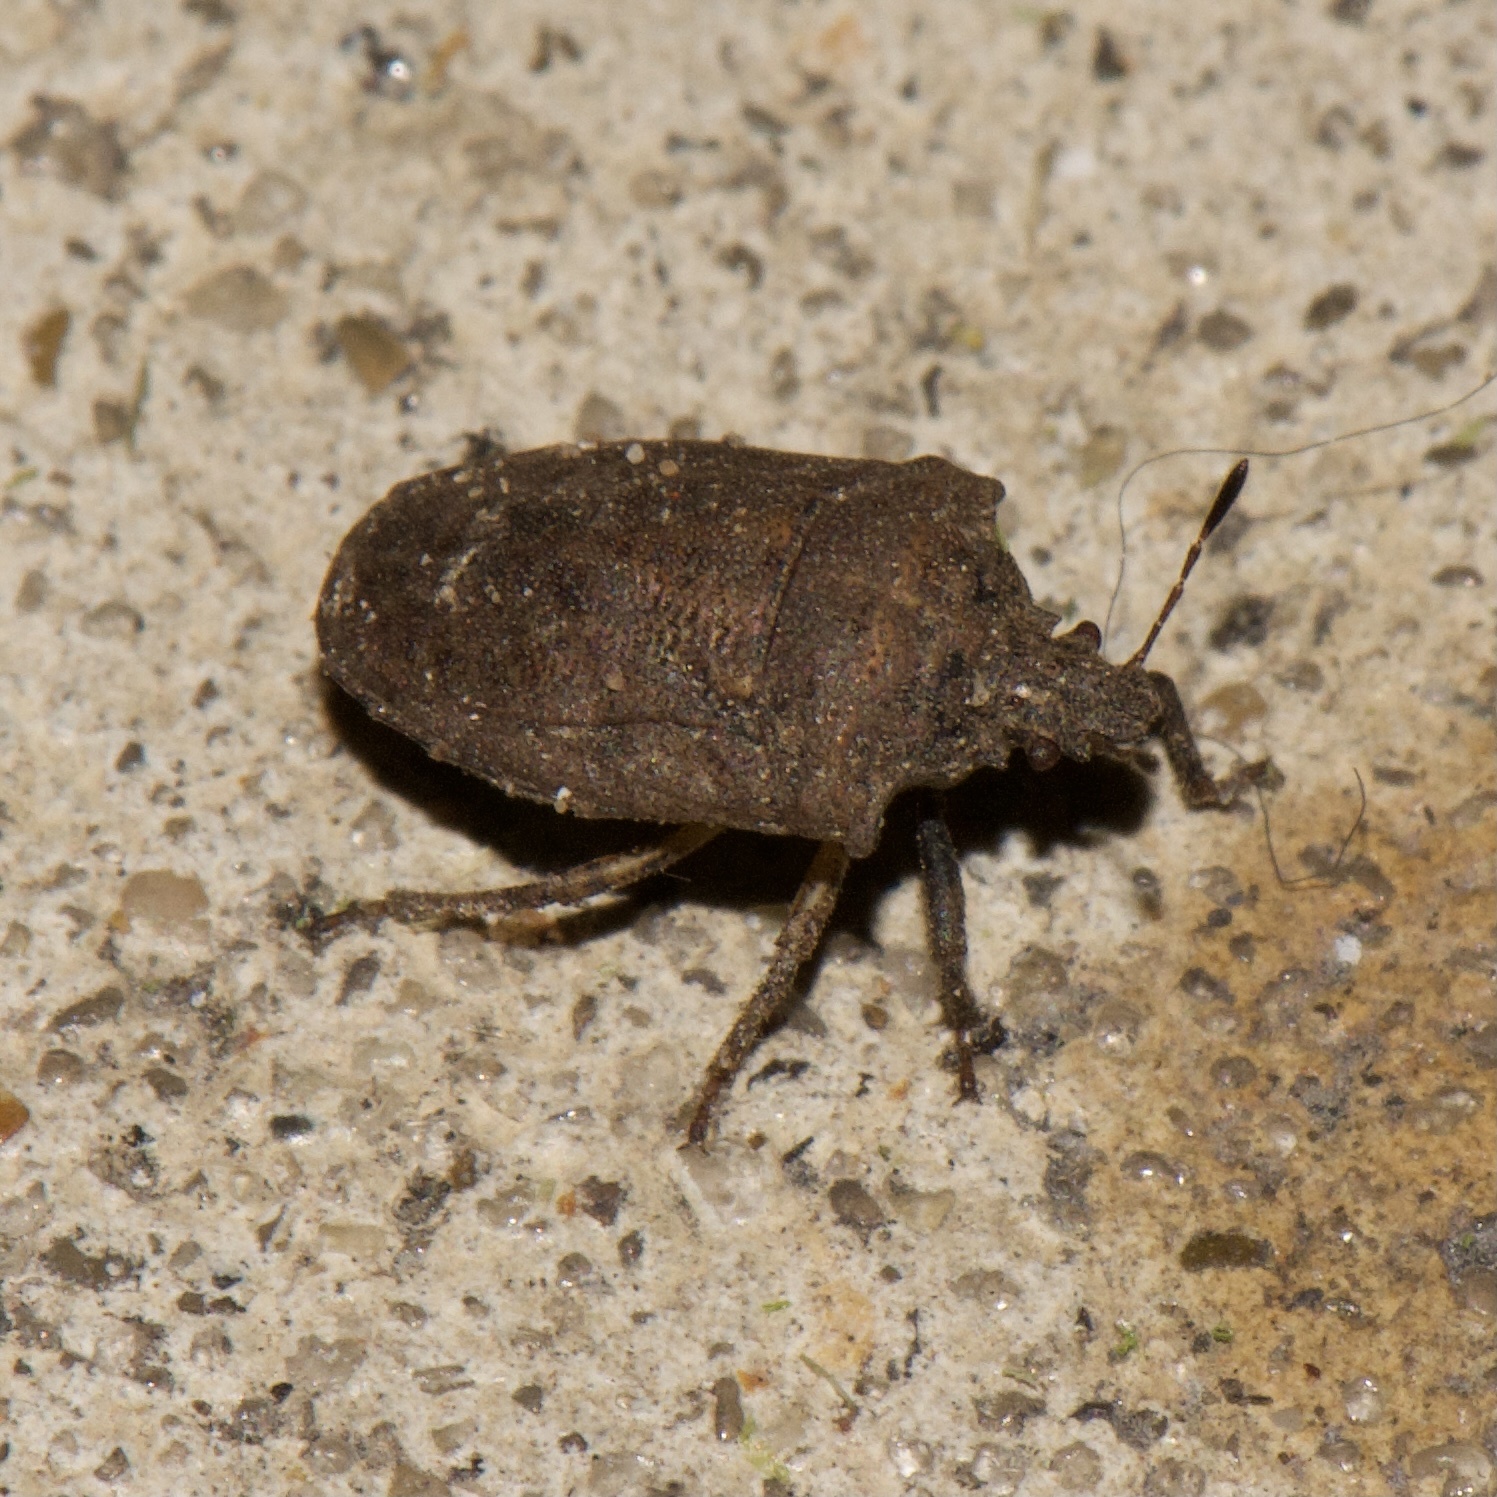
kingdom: Animalia
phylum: Arthropoda
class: Insecta
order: Hemiptera
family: Pentatomidae
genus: Amaurochrous
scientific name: Amaurochrous cinctipes
